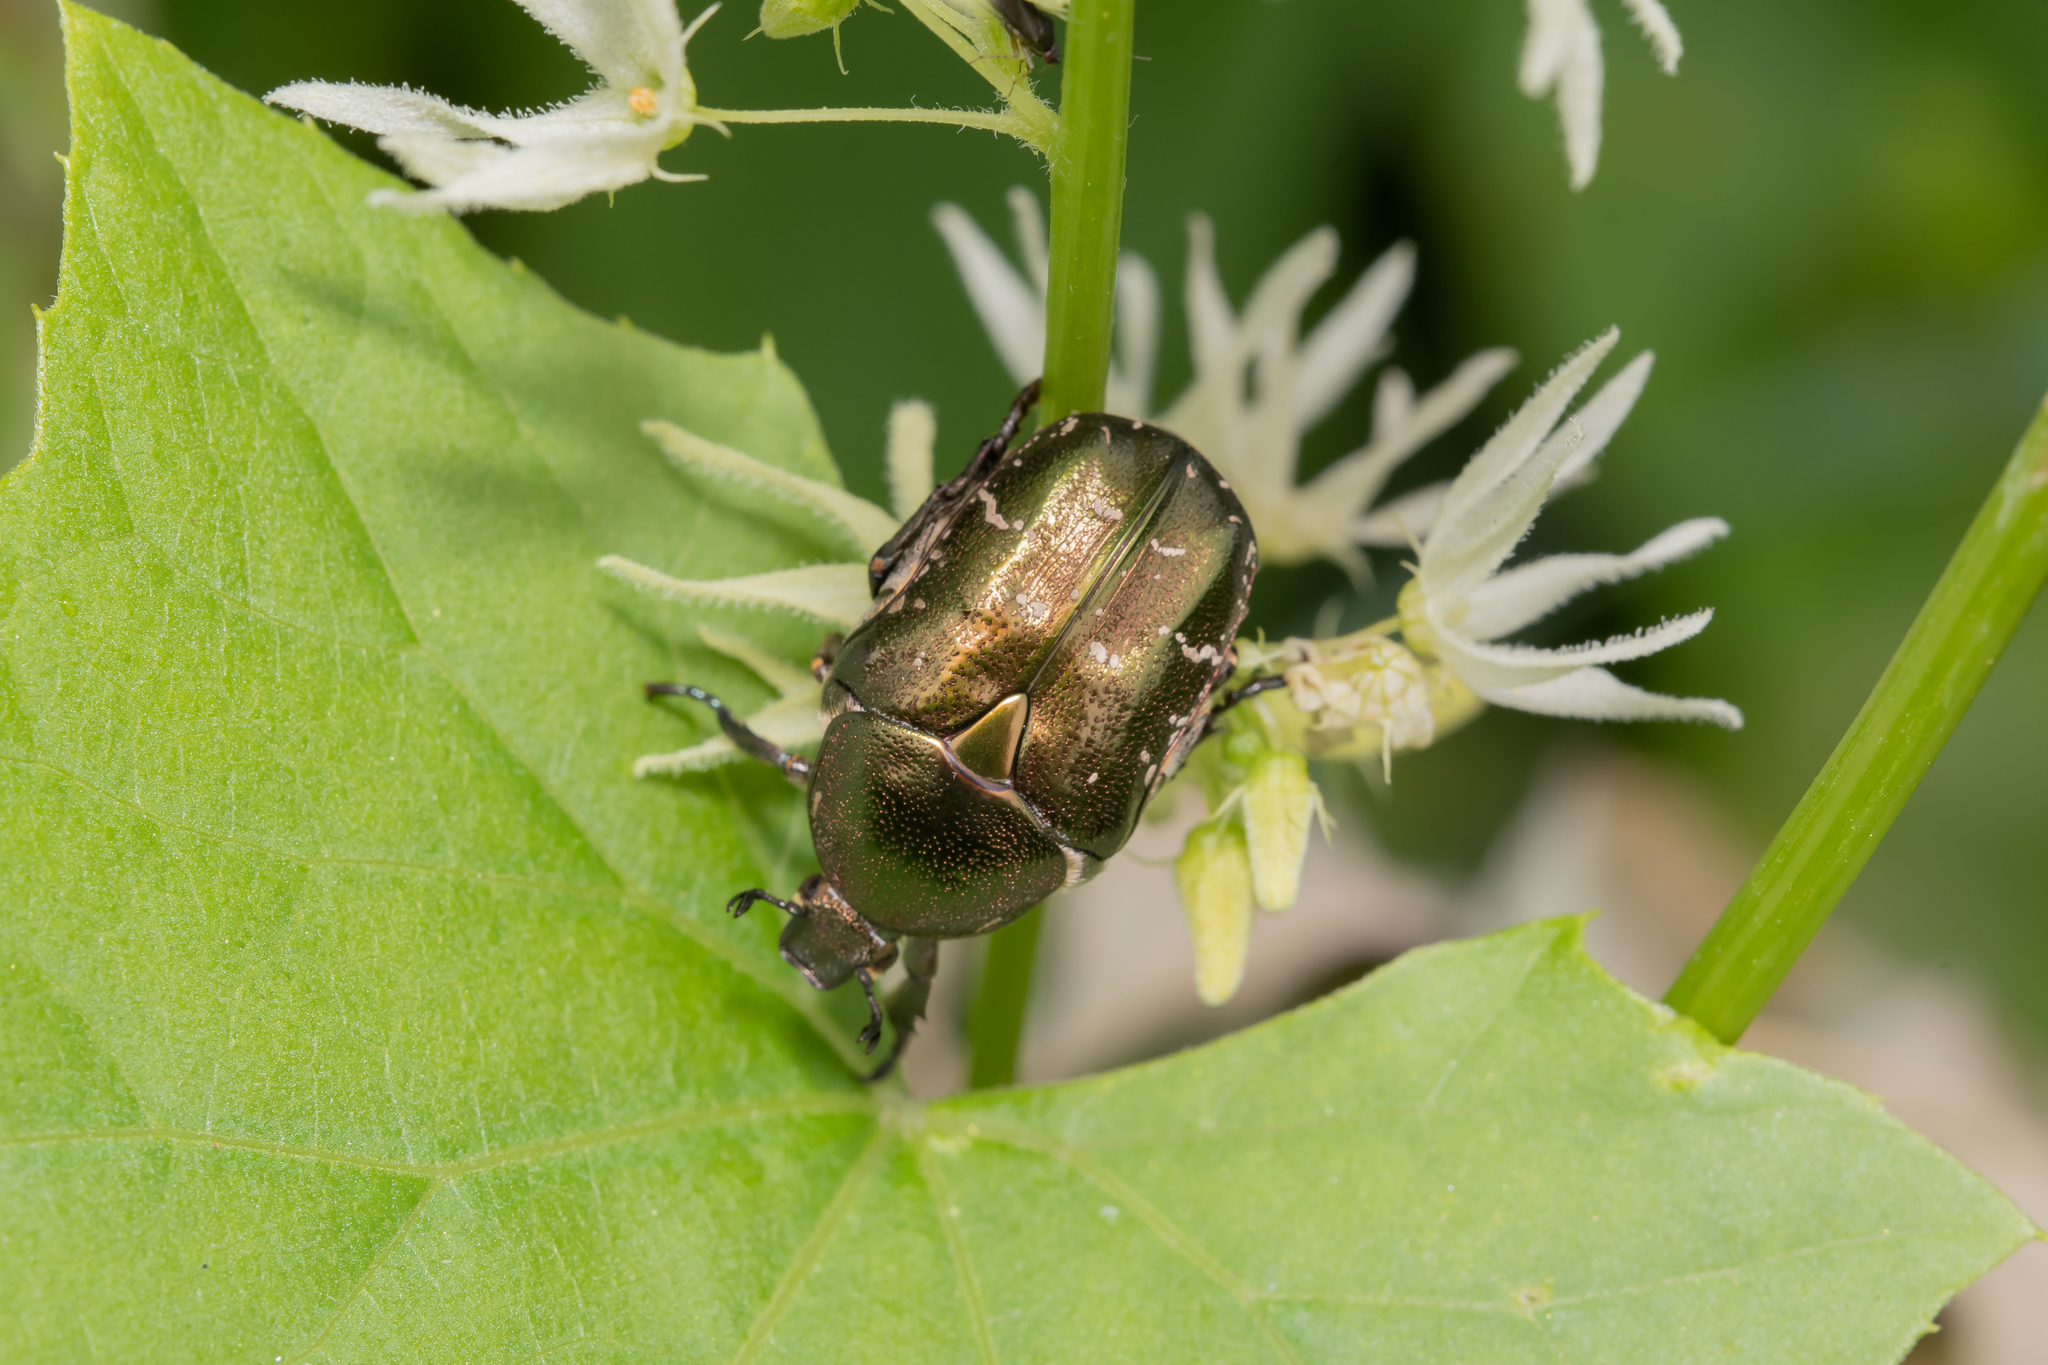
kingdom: Animalia
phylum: Arthropoda
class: Insecta
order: Coleoptera
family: Scarabaeidae
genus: Protaetia
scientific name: Protaetia cuprea
